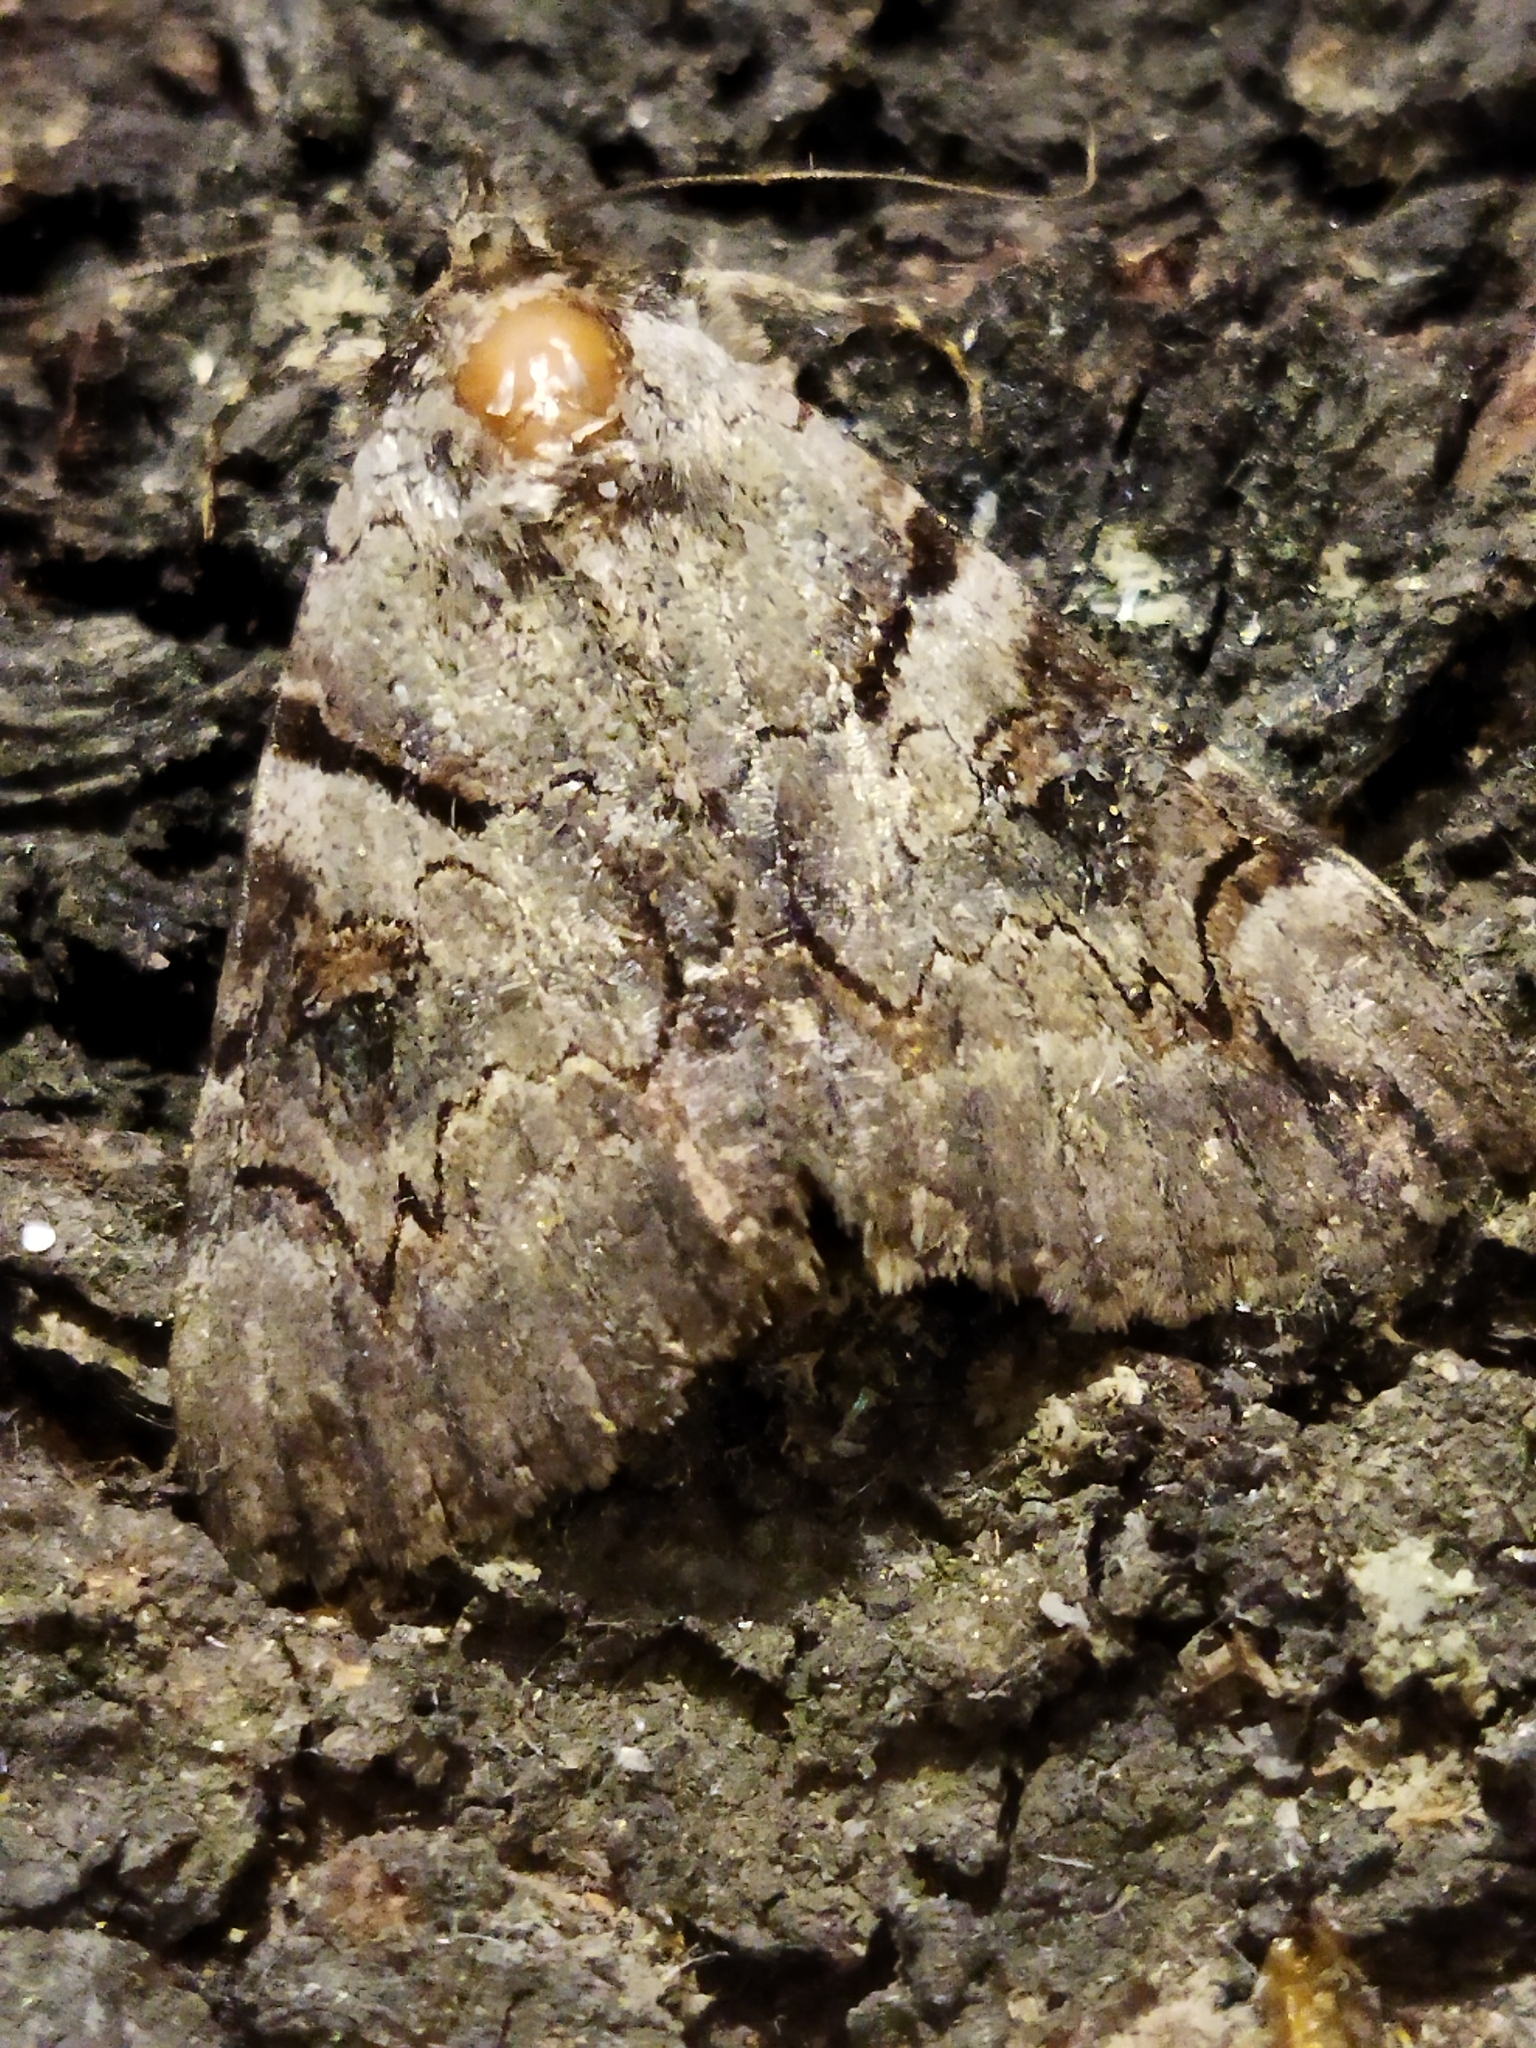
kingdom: Animalia
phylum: Arthropoda
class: Insecta
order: Lepidoptera
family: Erebidae
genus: Catocala
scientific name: Catocala hymenaea
